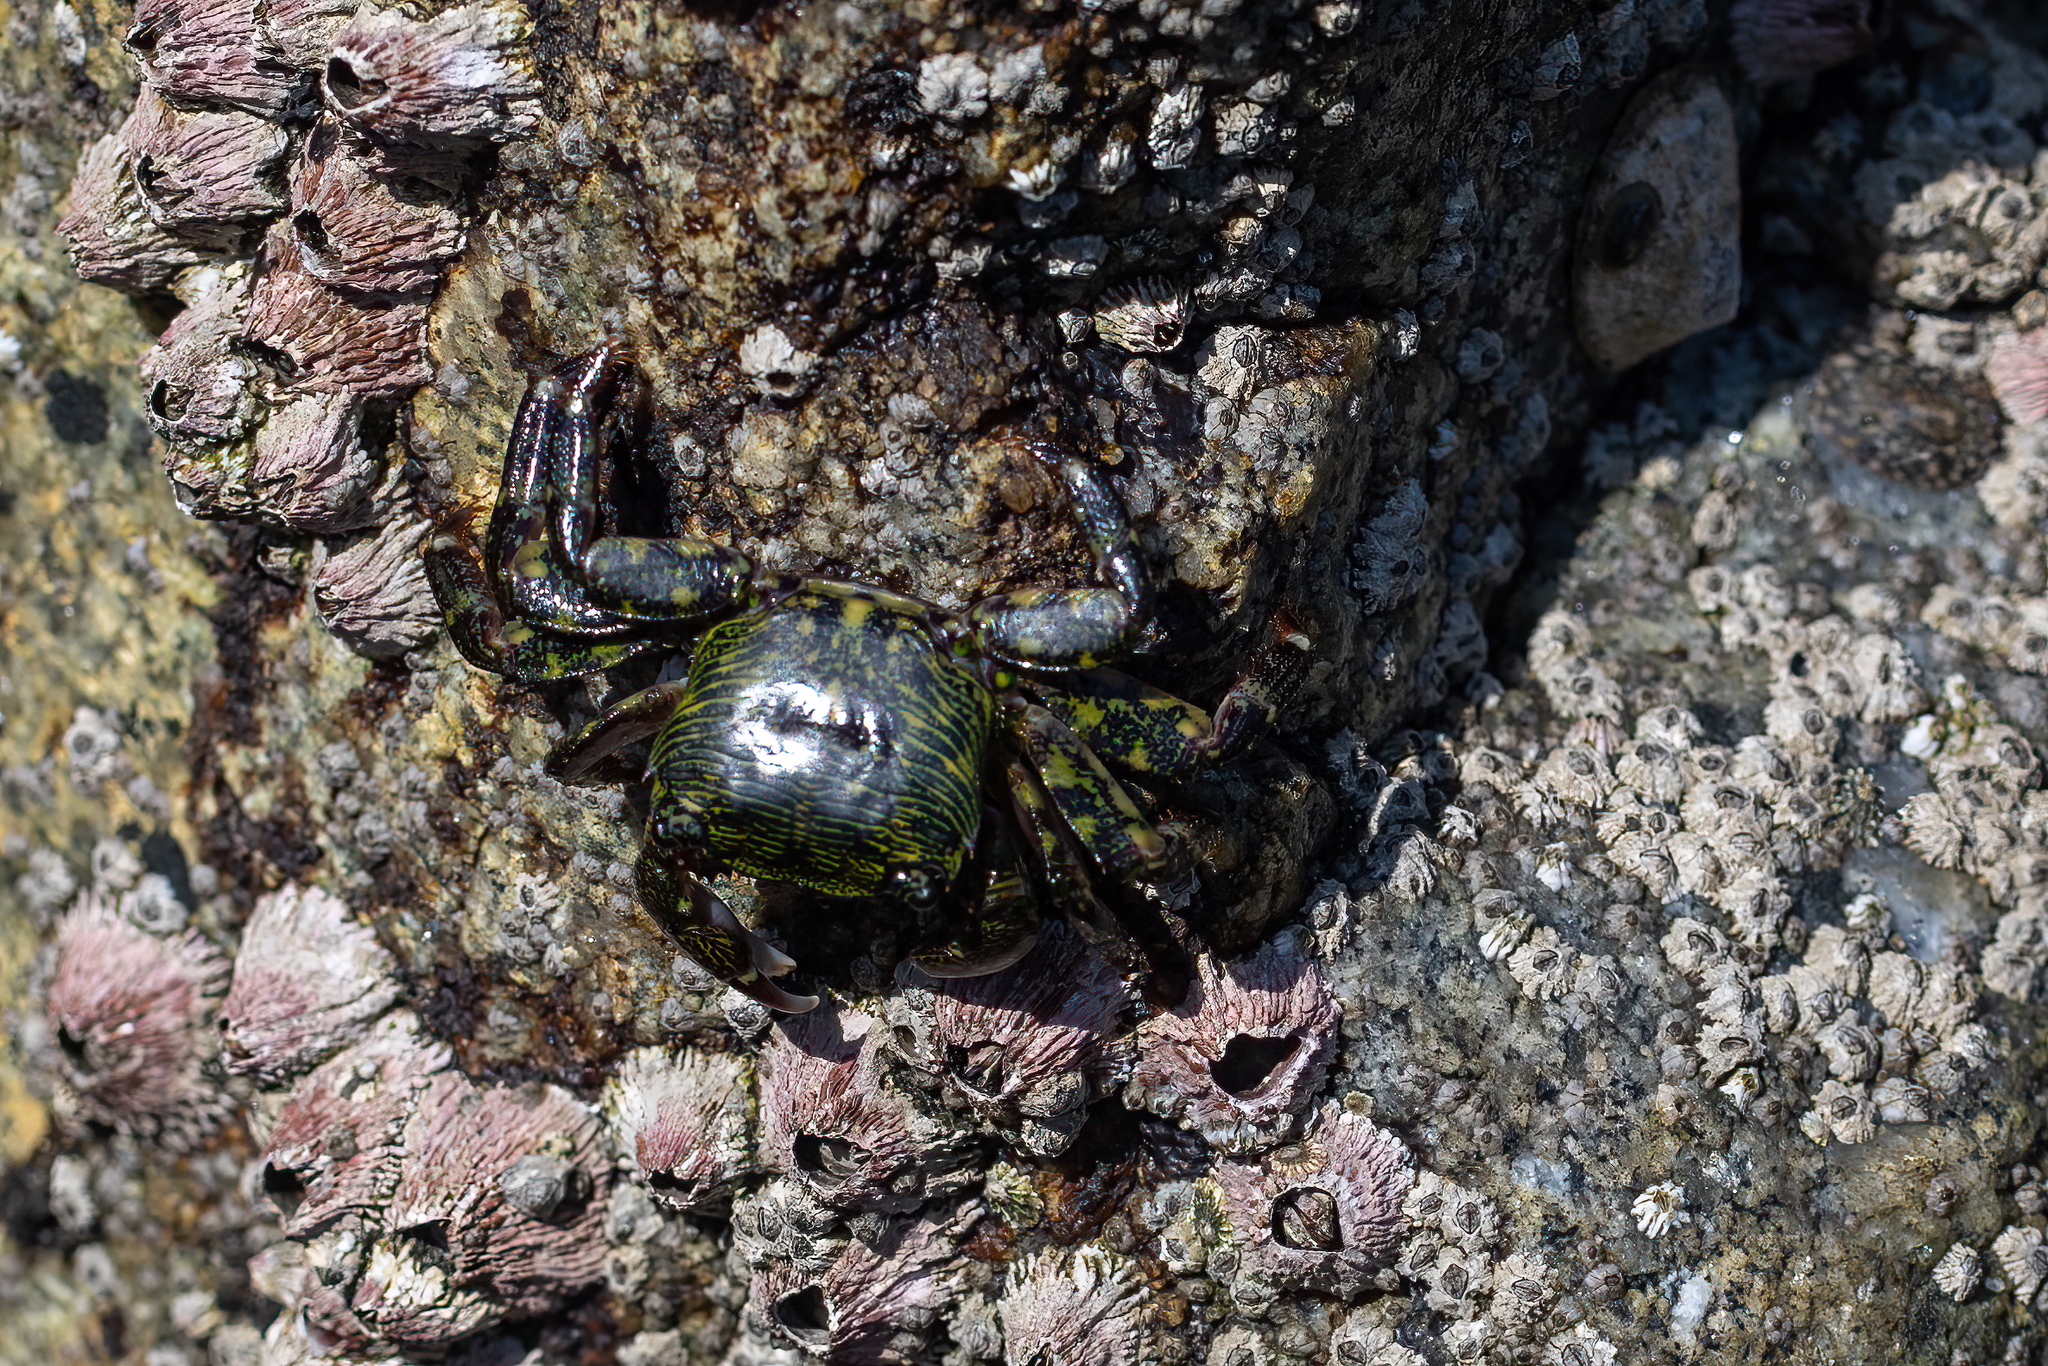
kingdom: Animalia
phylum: Arthropoda
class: Malacostraca
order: Decapoda
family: Grapsidae
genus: Pachygrapsus
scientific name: Pachygrapsus crassipes
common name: Striped shore crab
